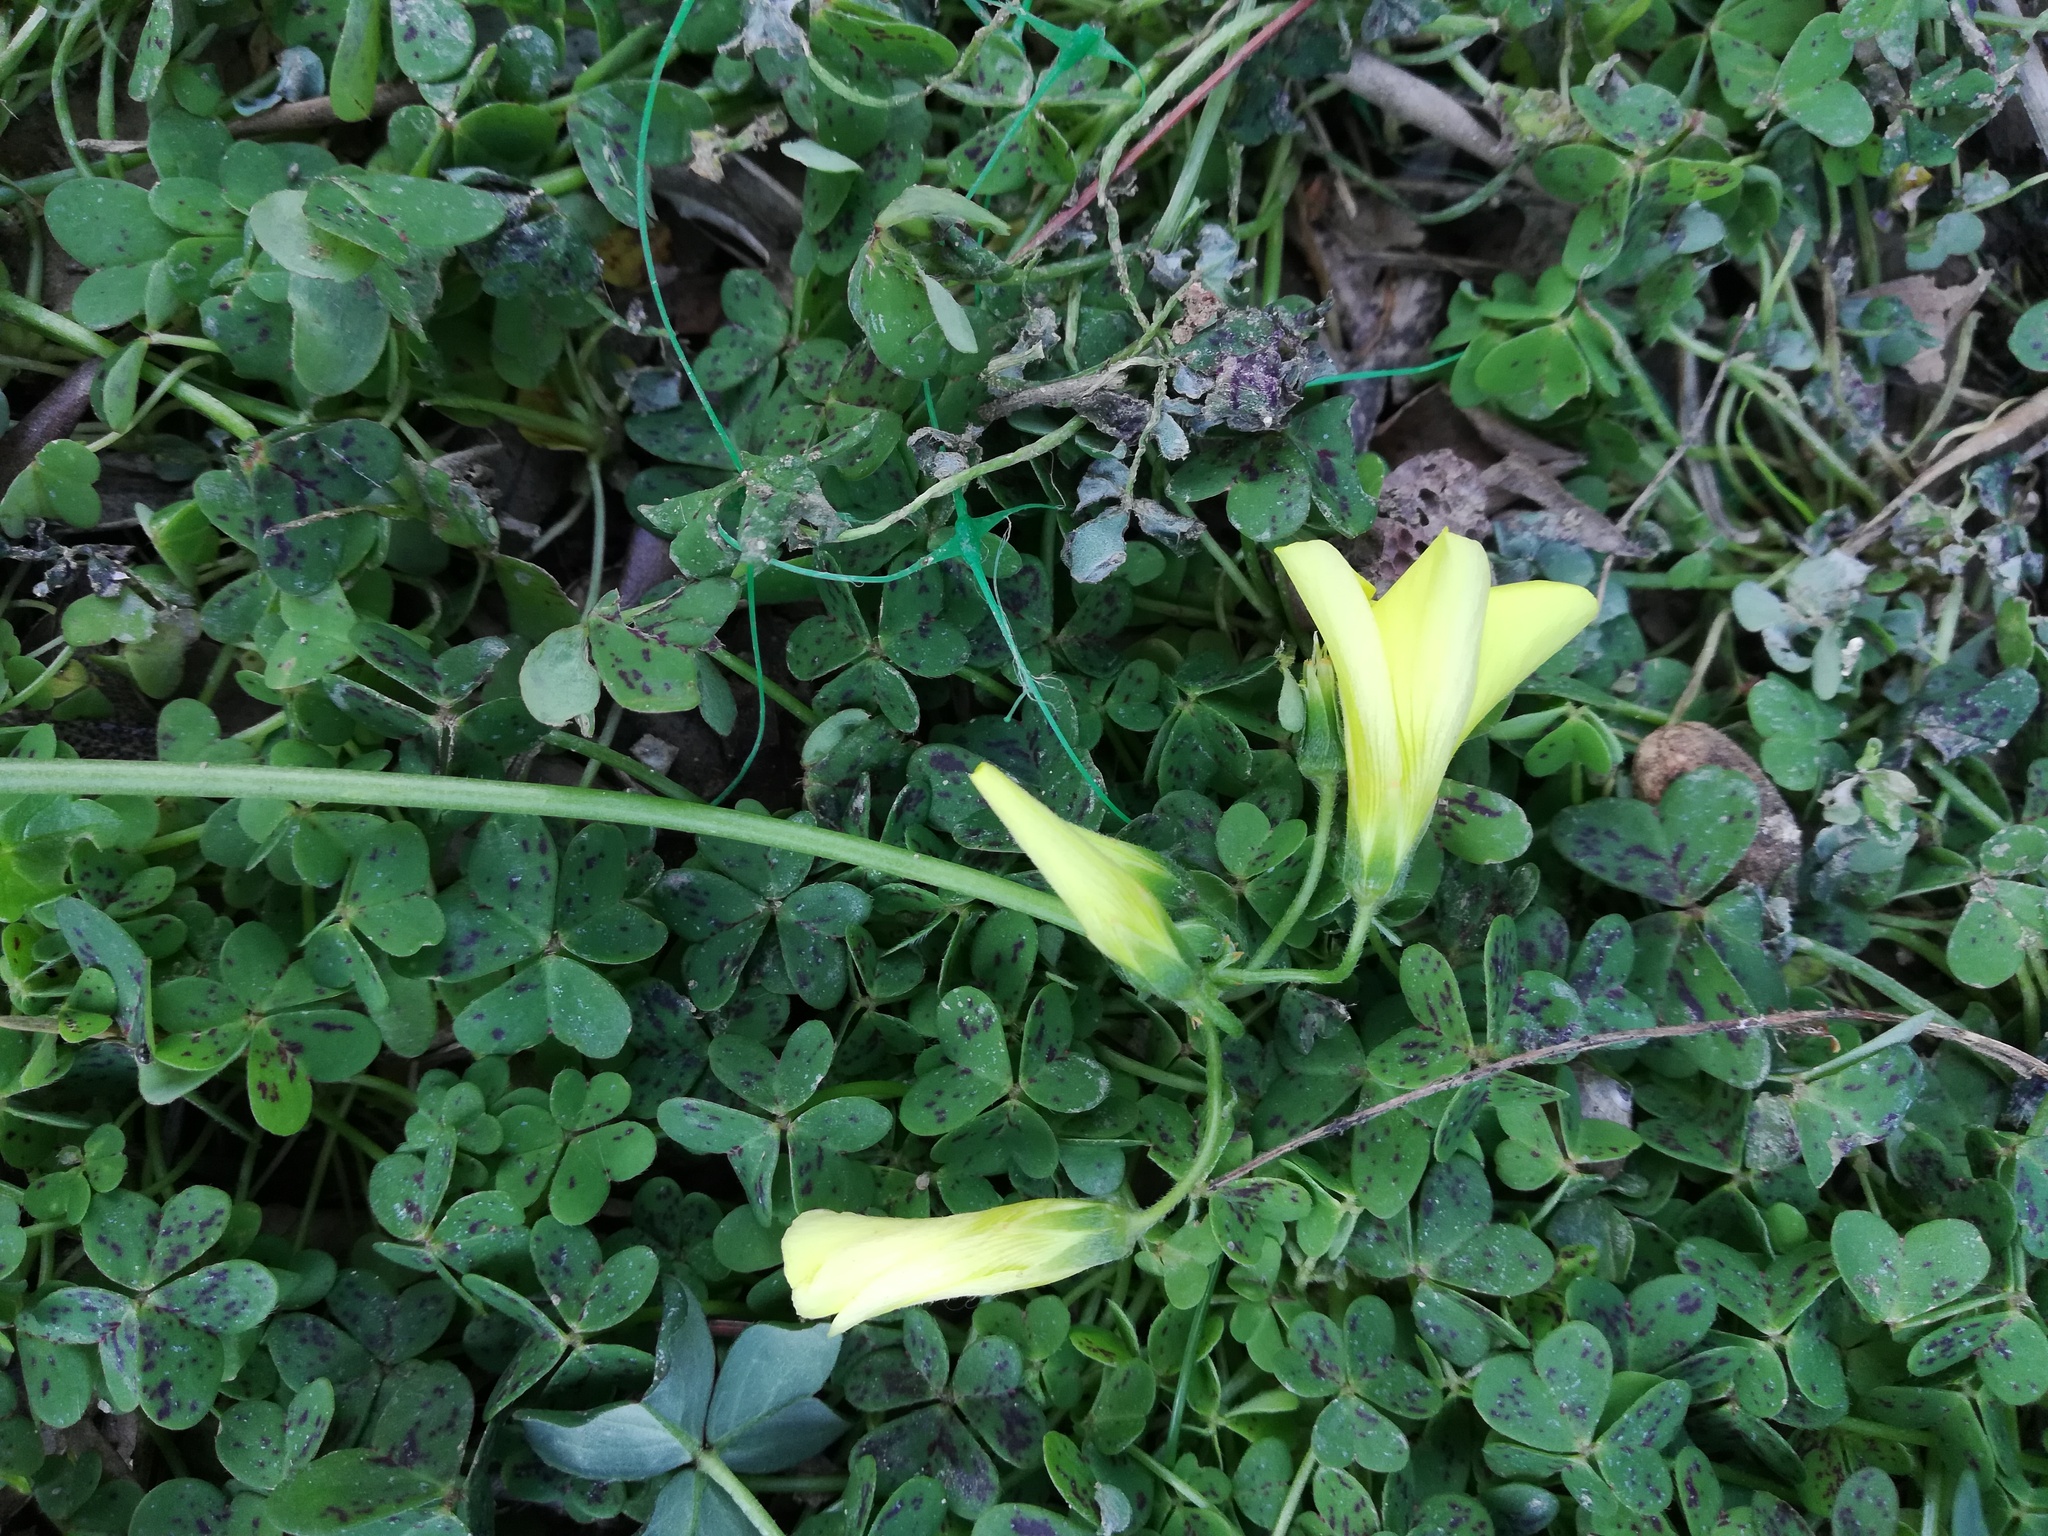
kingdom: Plantae
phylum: Tracheophyta
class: Magnoliopsida
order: Oxalidales
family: Oxalidaceae
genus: Oxalis
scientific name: Oxalis pes-caprae
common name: Bermuda-buttercup
